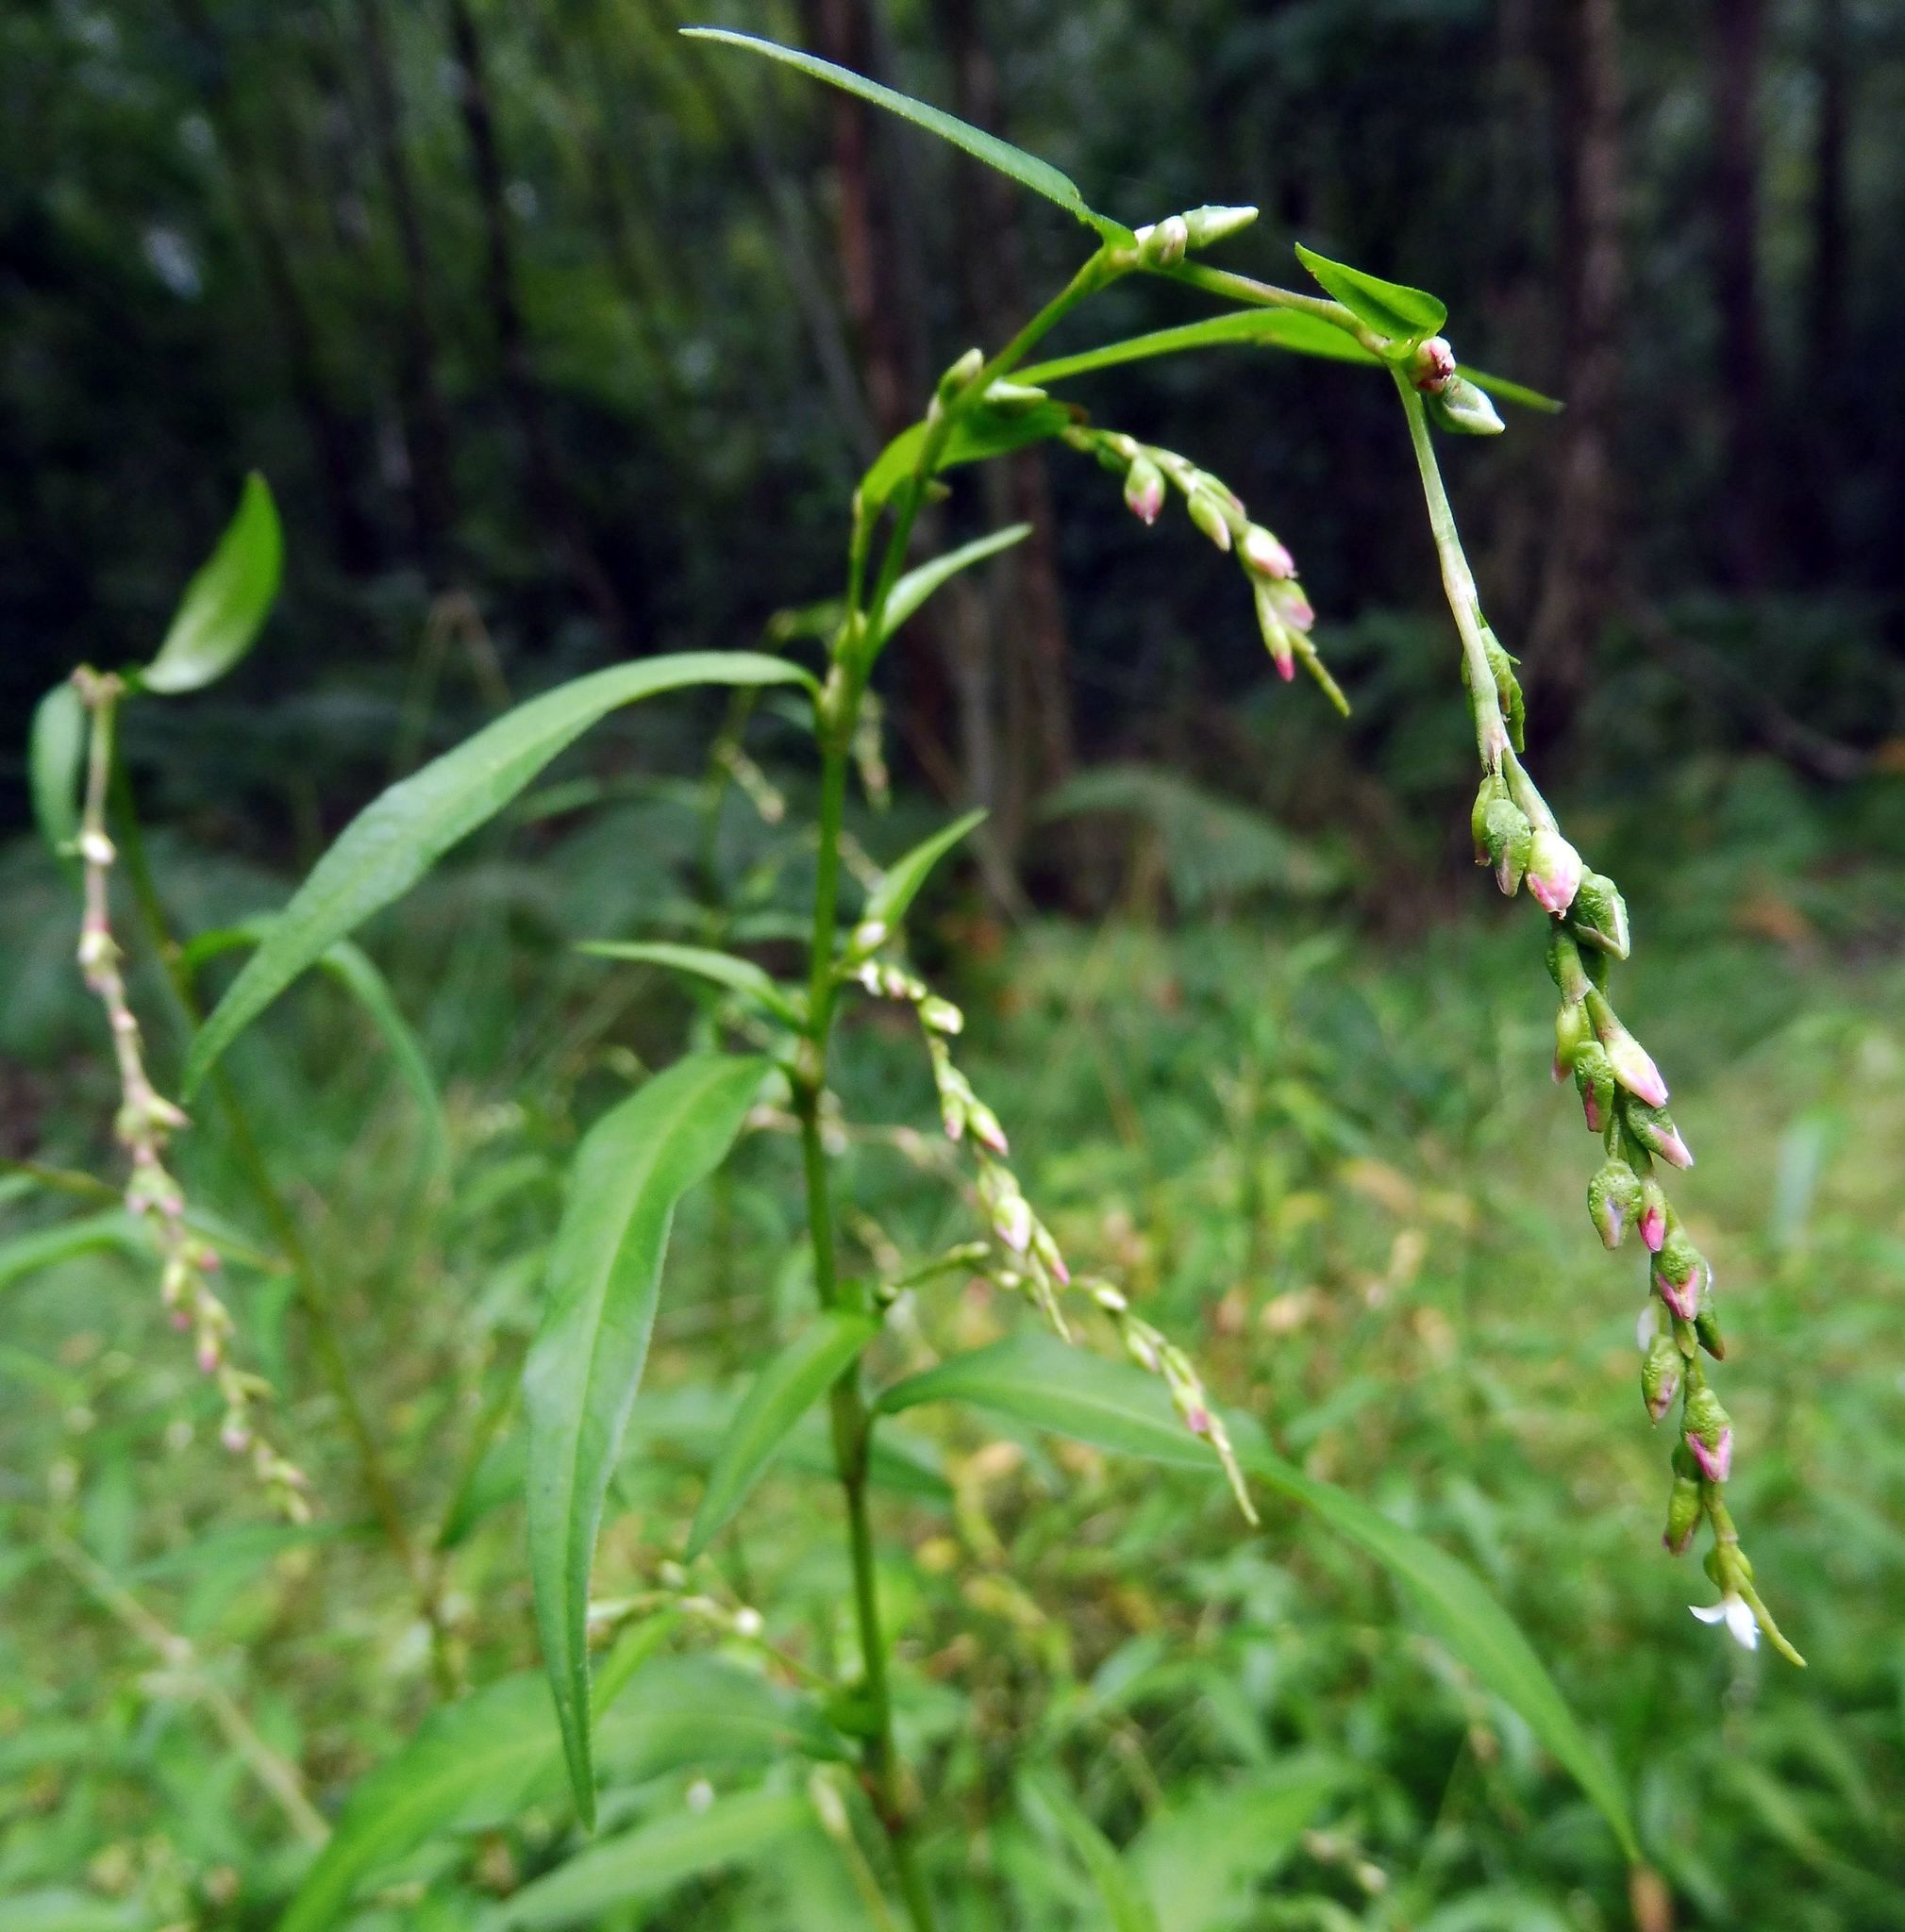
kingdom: Plantae
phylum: Tracheophyta
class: Magnoliopsida
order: Caryophyllales
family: Polygonaceae
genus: Persicaria
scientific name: Persicaria hydropiper
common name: Water-pepper
